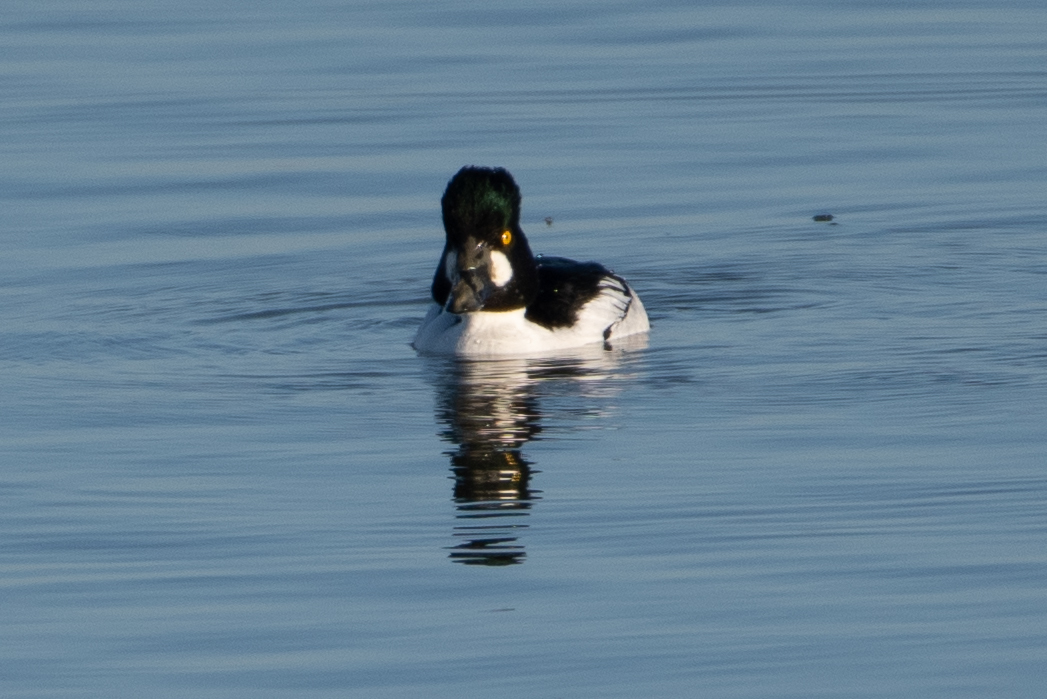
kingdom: Animalia
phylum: Chordata
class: Aves
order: Anseriformes
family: Anatidae
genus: Bucephala
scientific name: Bucephala clangula
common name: Common goldeneye
